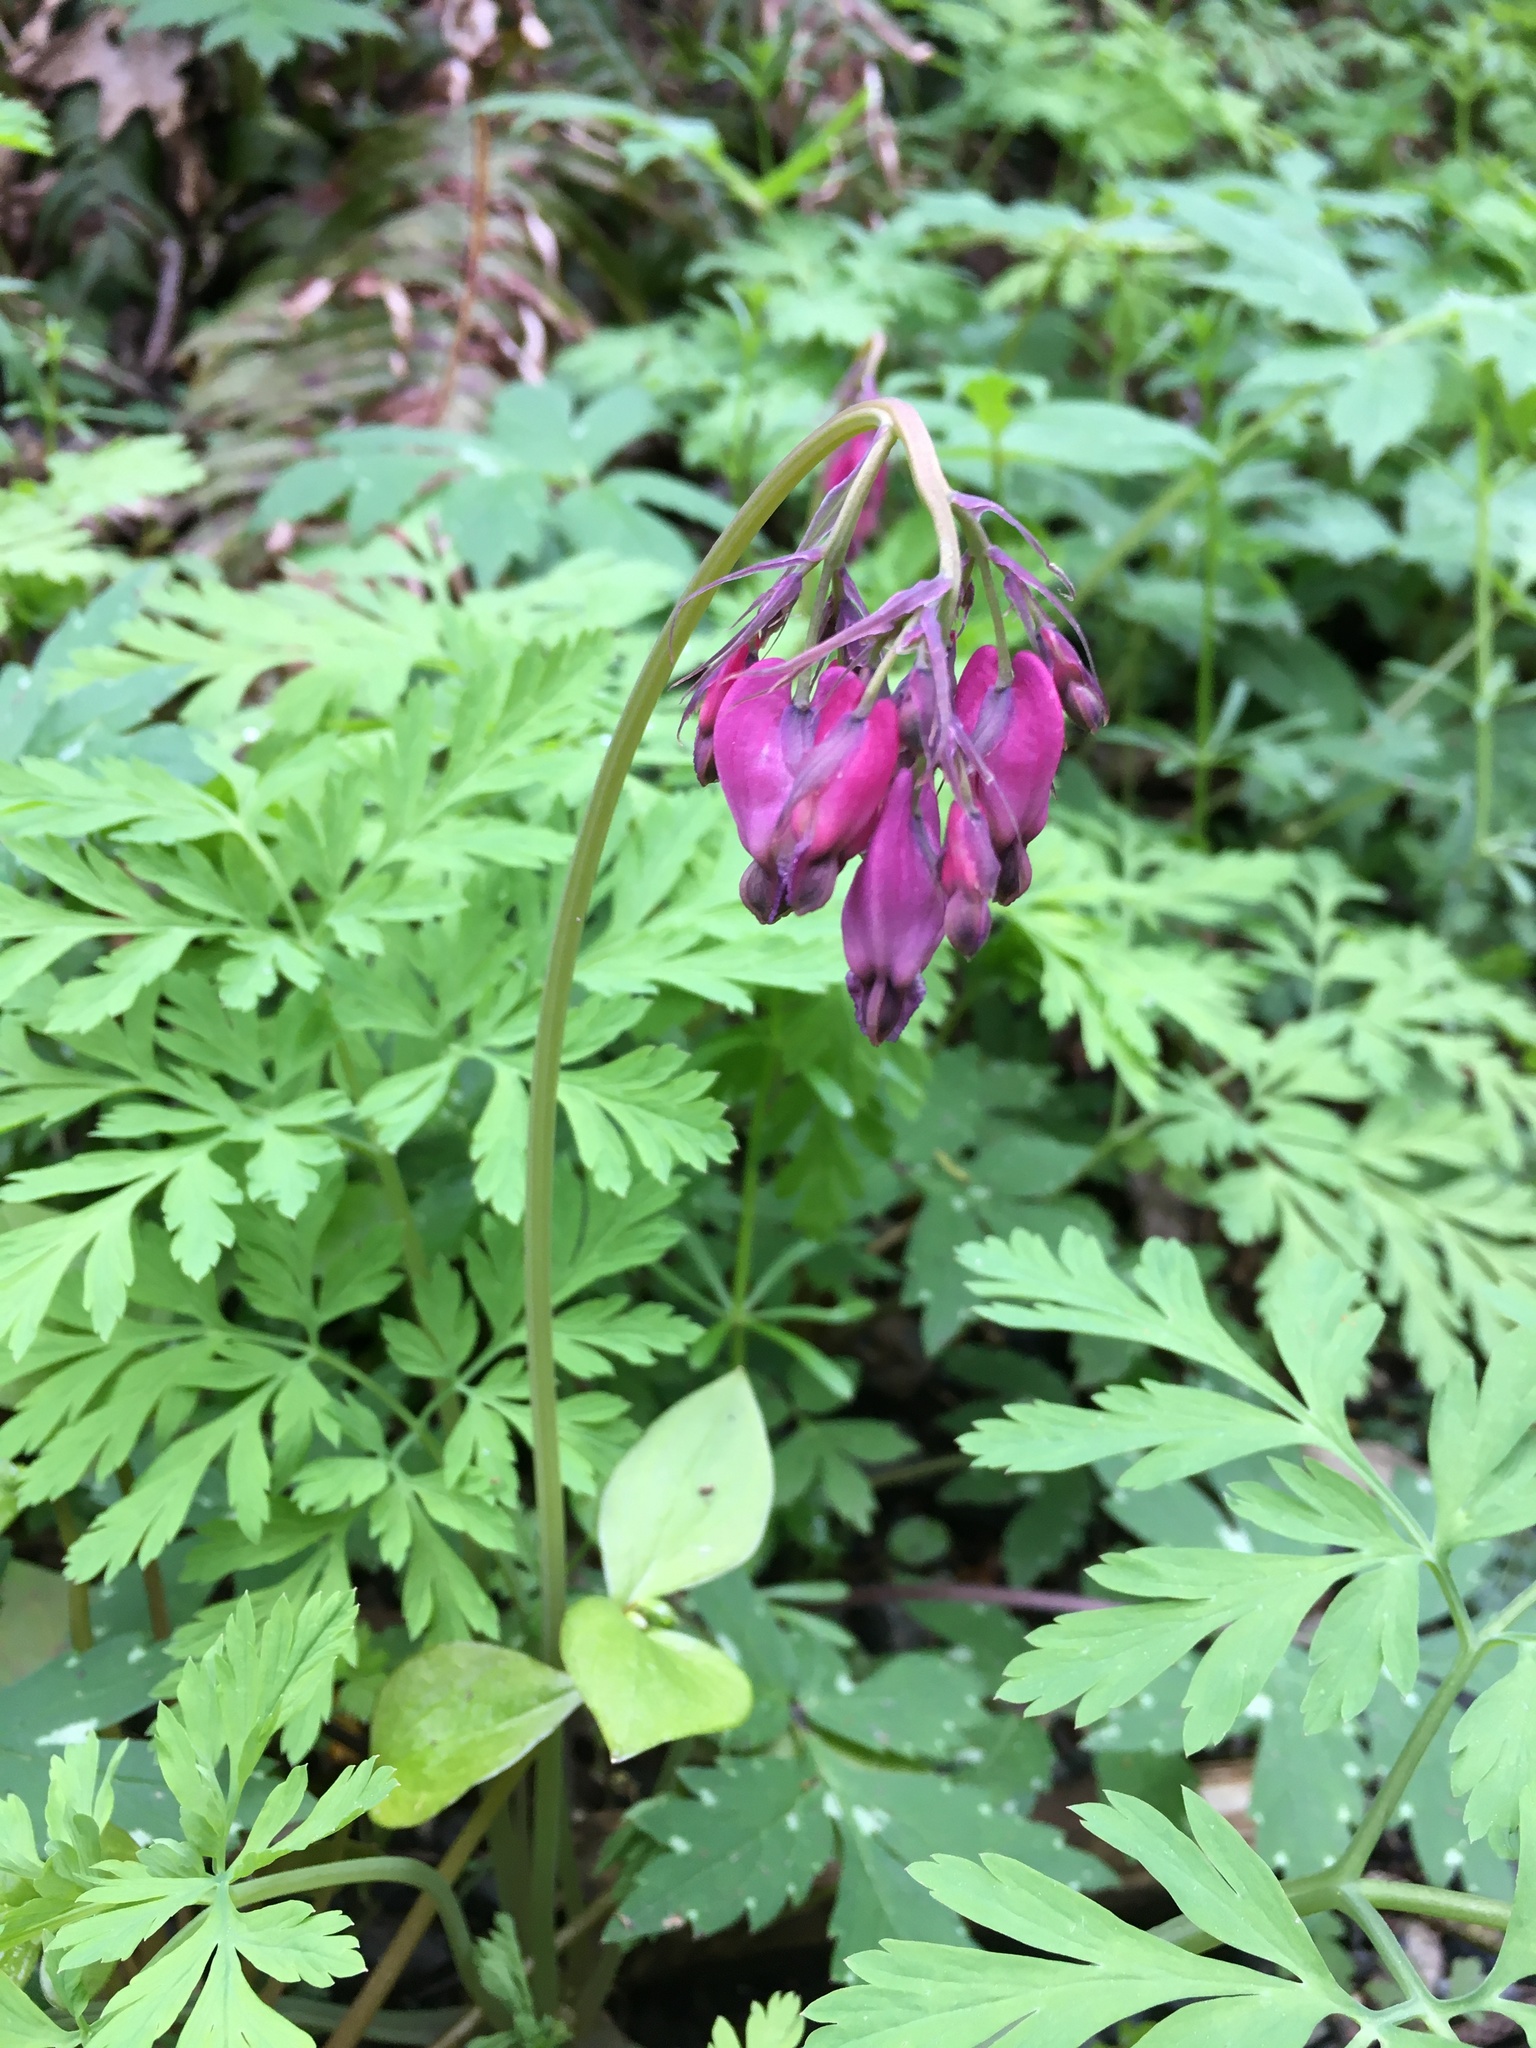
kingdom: Plantae
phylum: Tracheophyta
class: Magnoliopsida
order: Ranunculales
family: Papaveraceae
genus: Dicentra
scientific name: Dicentra formosa
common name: Bleeding-heart
